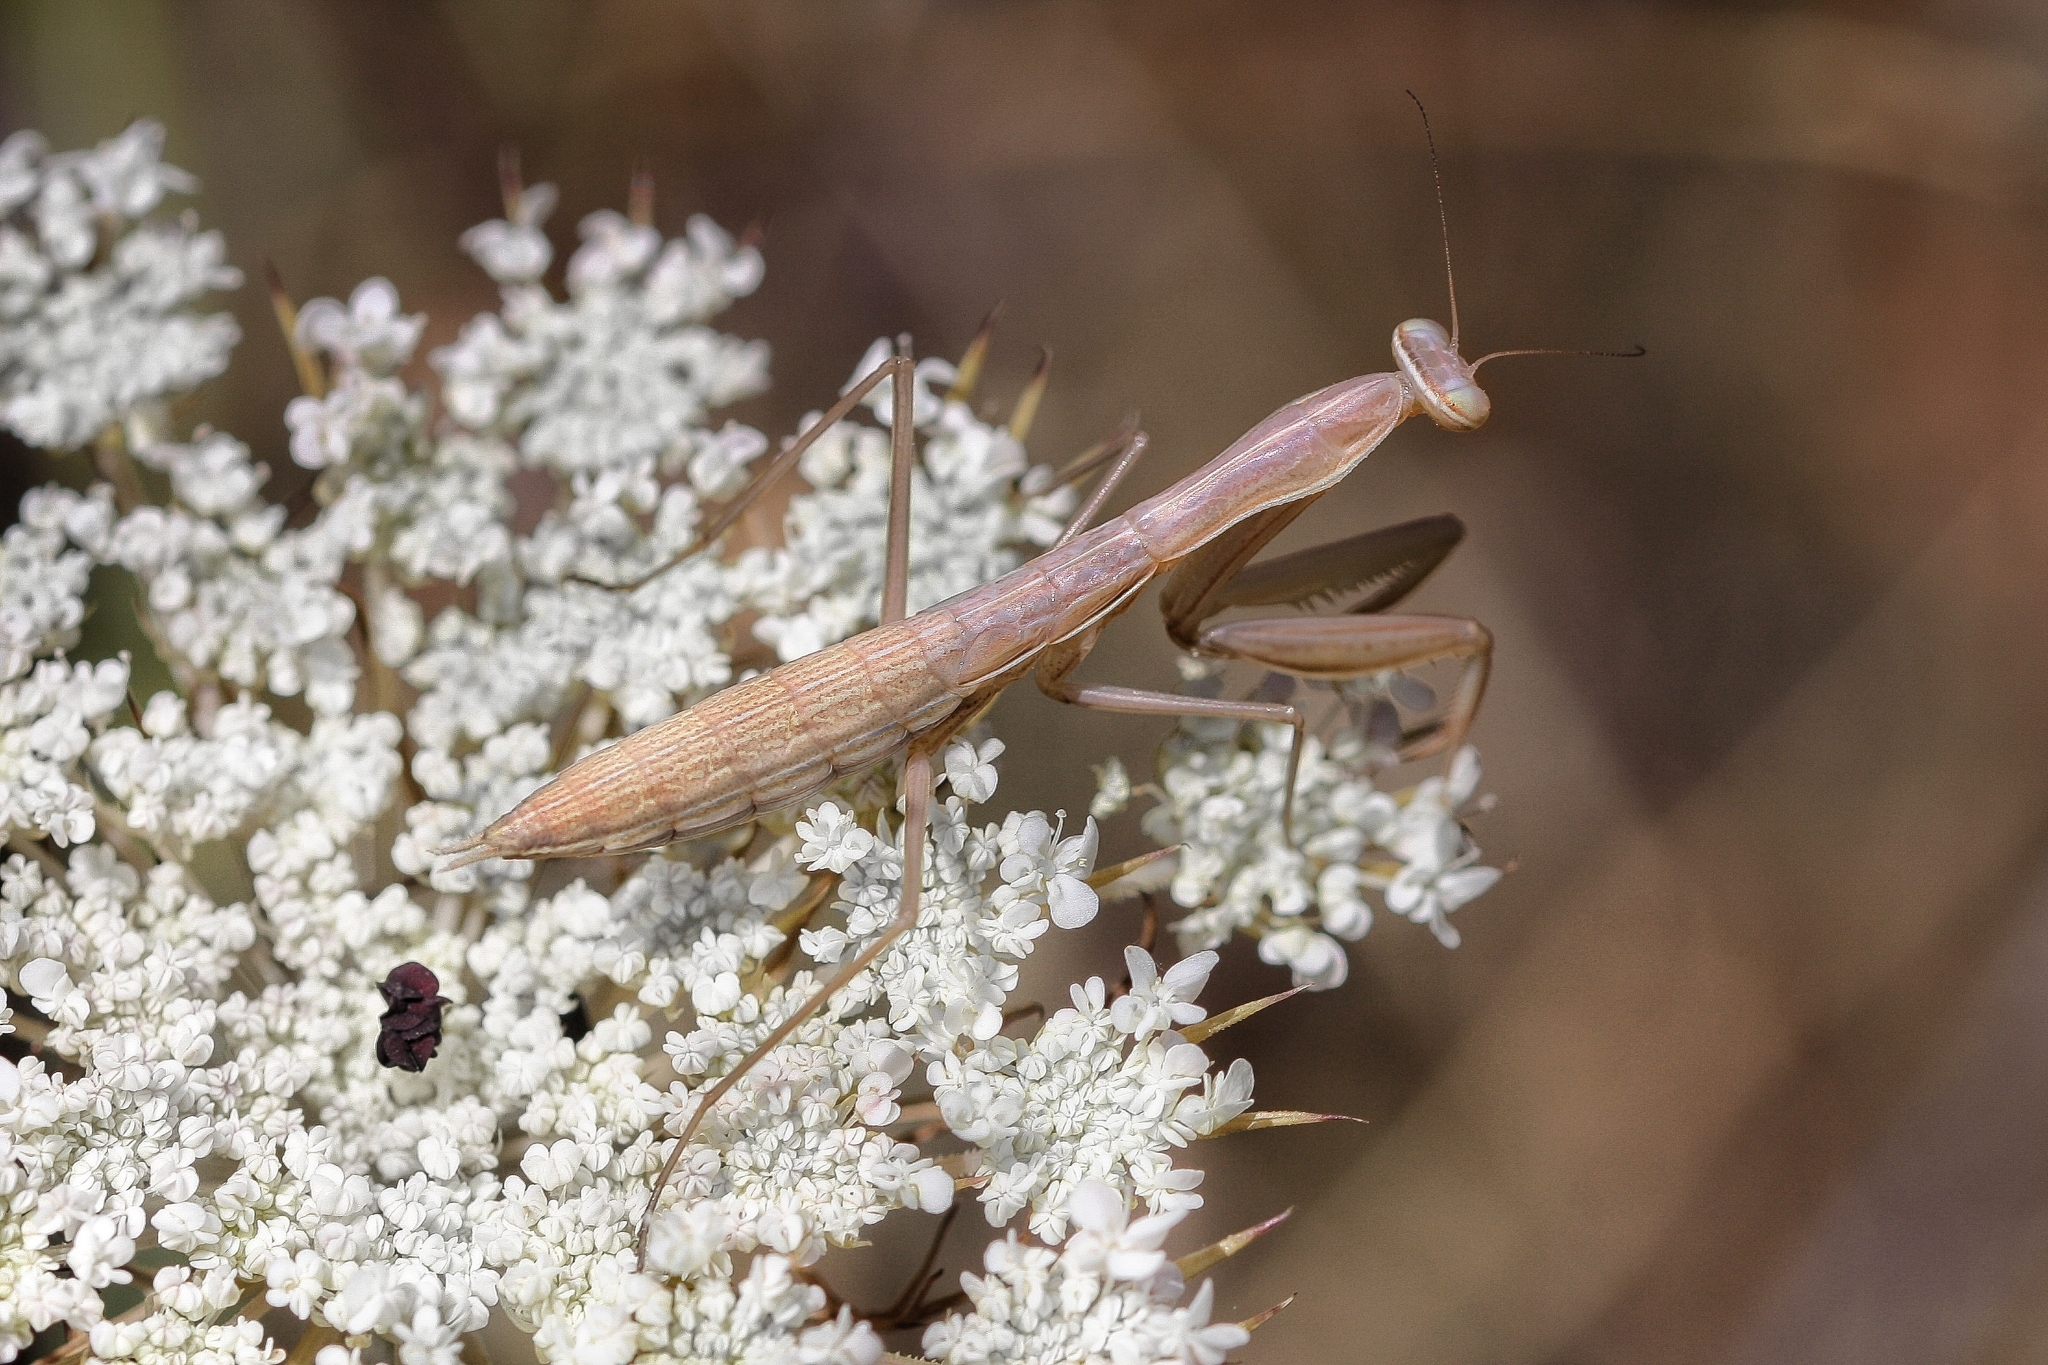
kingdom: Animalia
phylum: Arthropoda
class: Insecta
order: Mantodea
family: Mantidae
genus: Mantis
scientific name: Mantis religiosa
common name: Praying mantis
